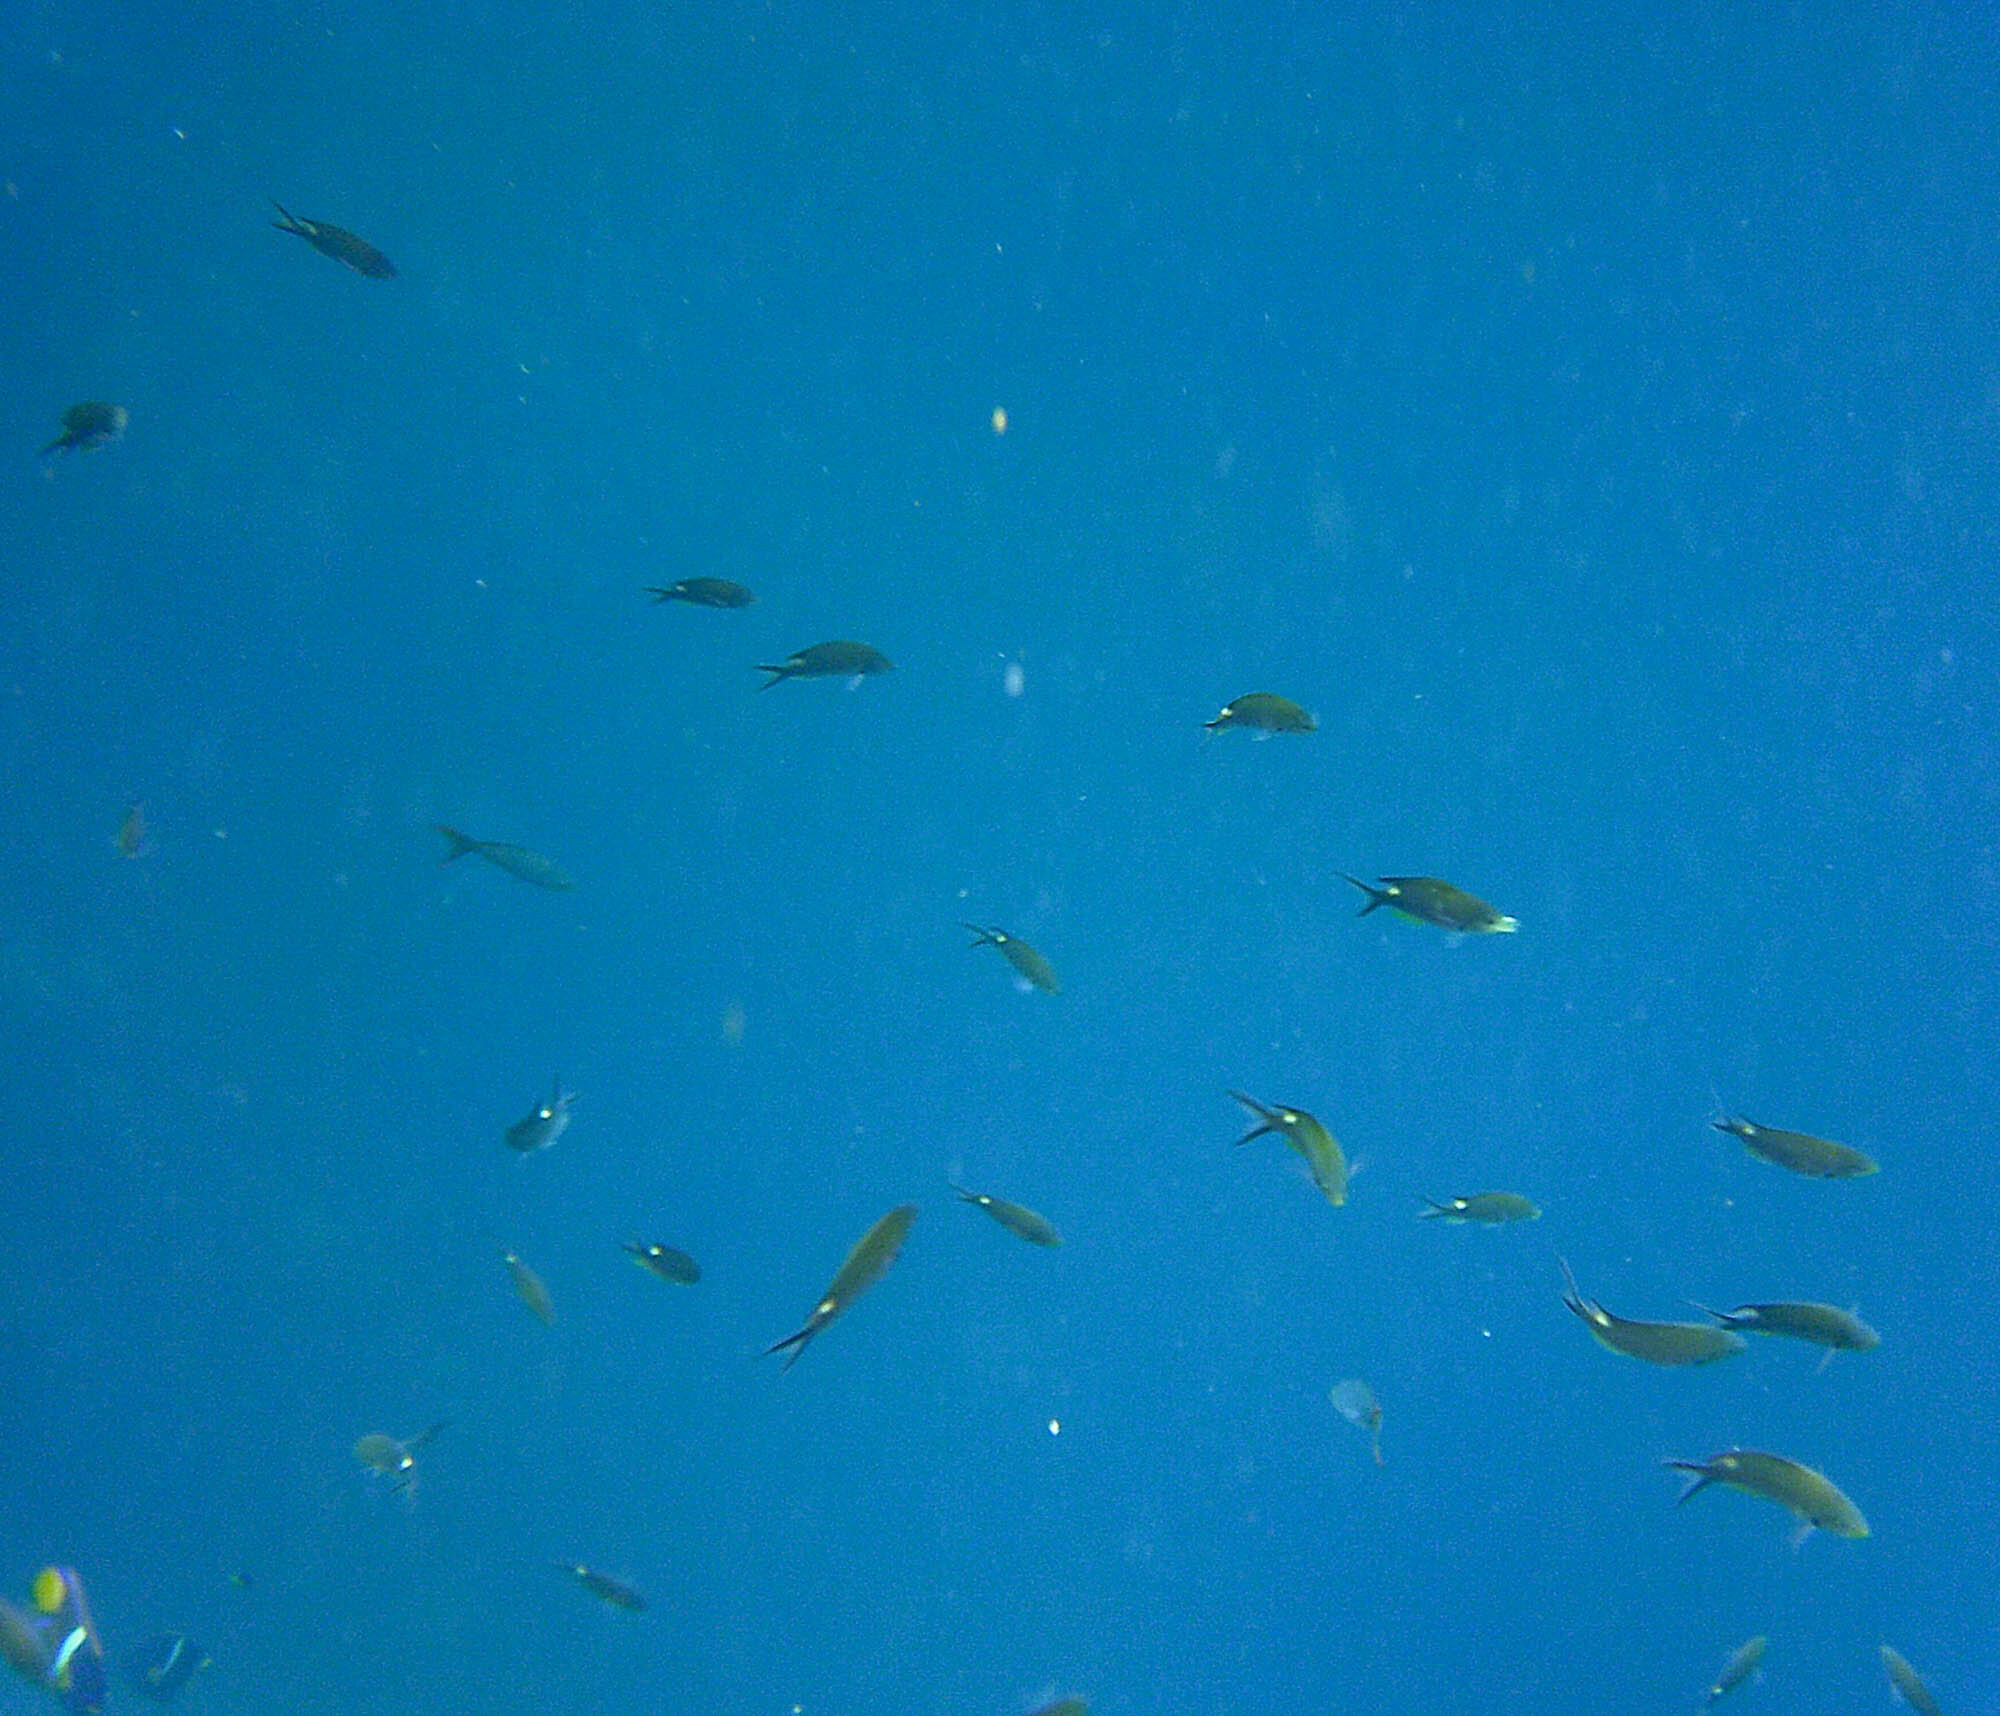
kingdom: Animalia
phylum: Chordata
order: Perciformes
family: Pomacentridae
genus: Chromis
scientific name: Chromis atrilobata
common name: Scissortail damselfish
